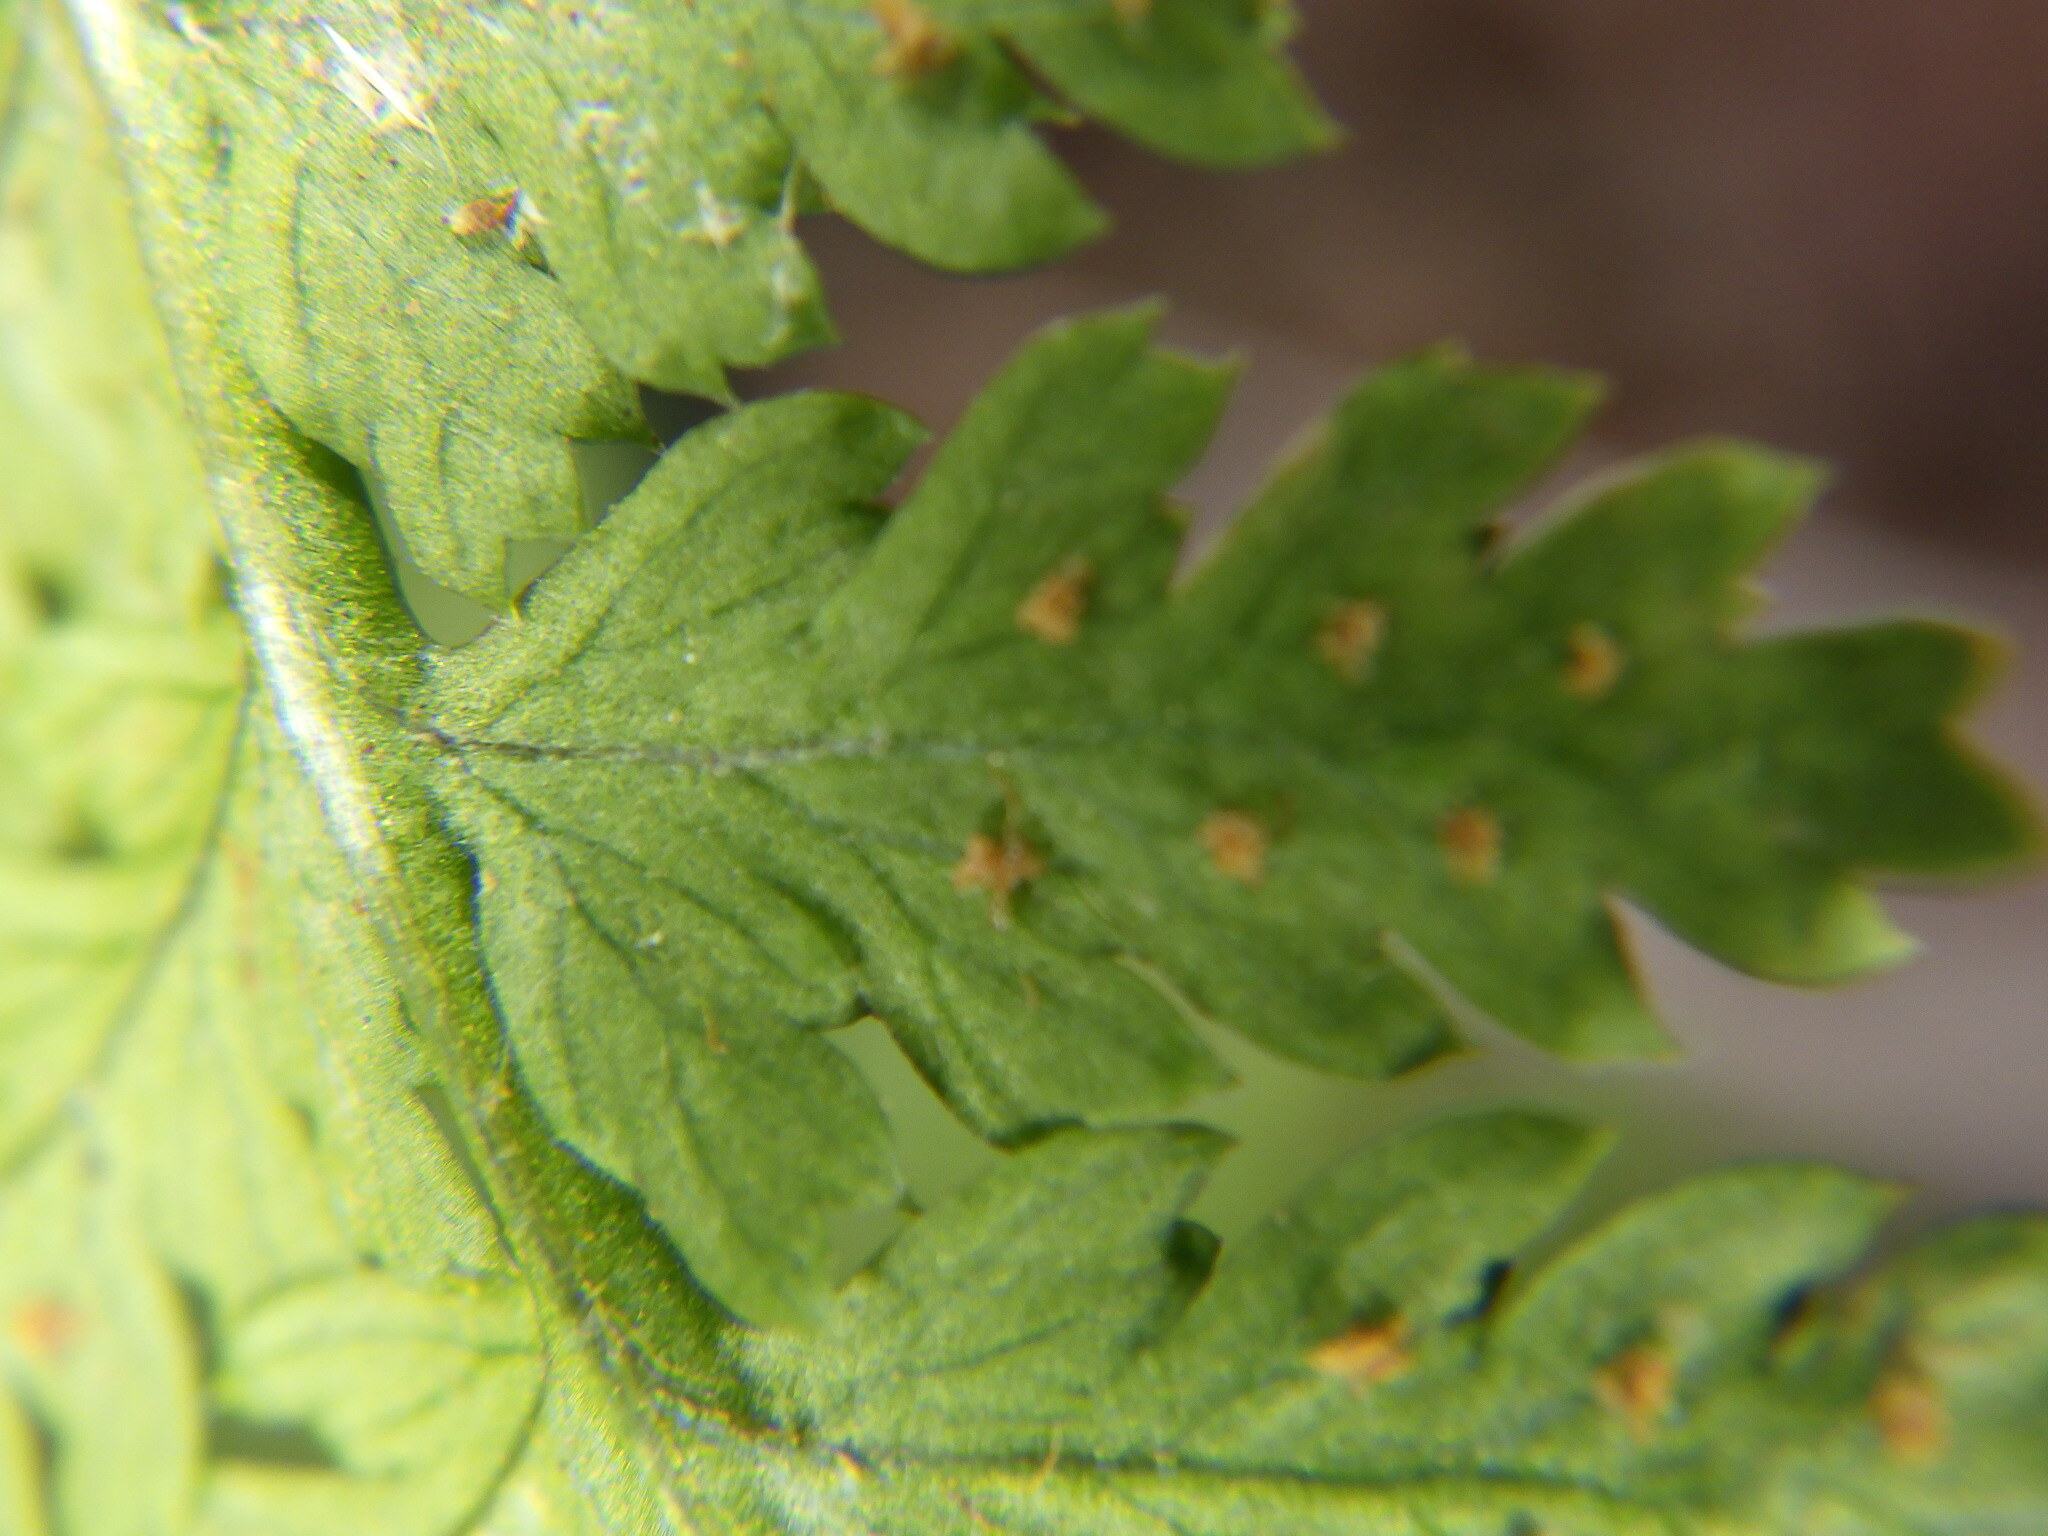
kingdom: Plantae
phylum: Tracheophyta
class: Polypodiopsida
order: Polypodiales
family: Dryopteridaceae
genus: Dryopteris
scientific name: Dryopteris intermedia
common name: Evergreen wood fern
